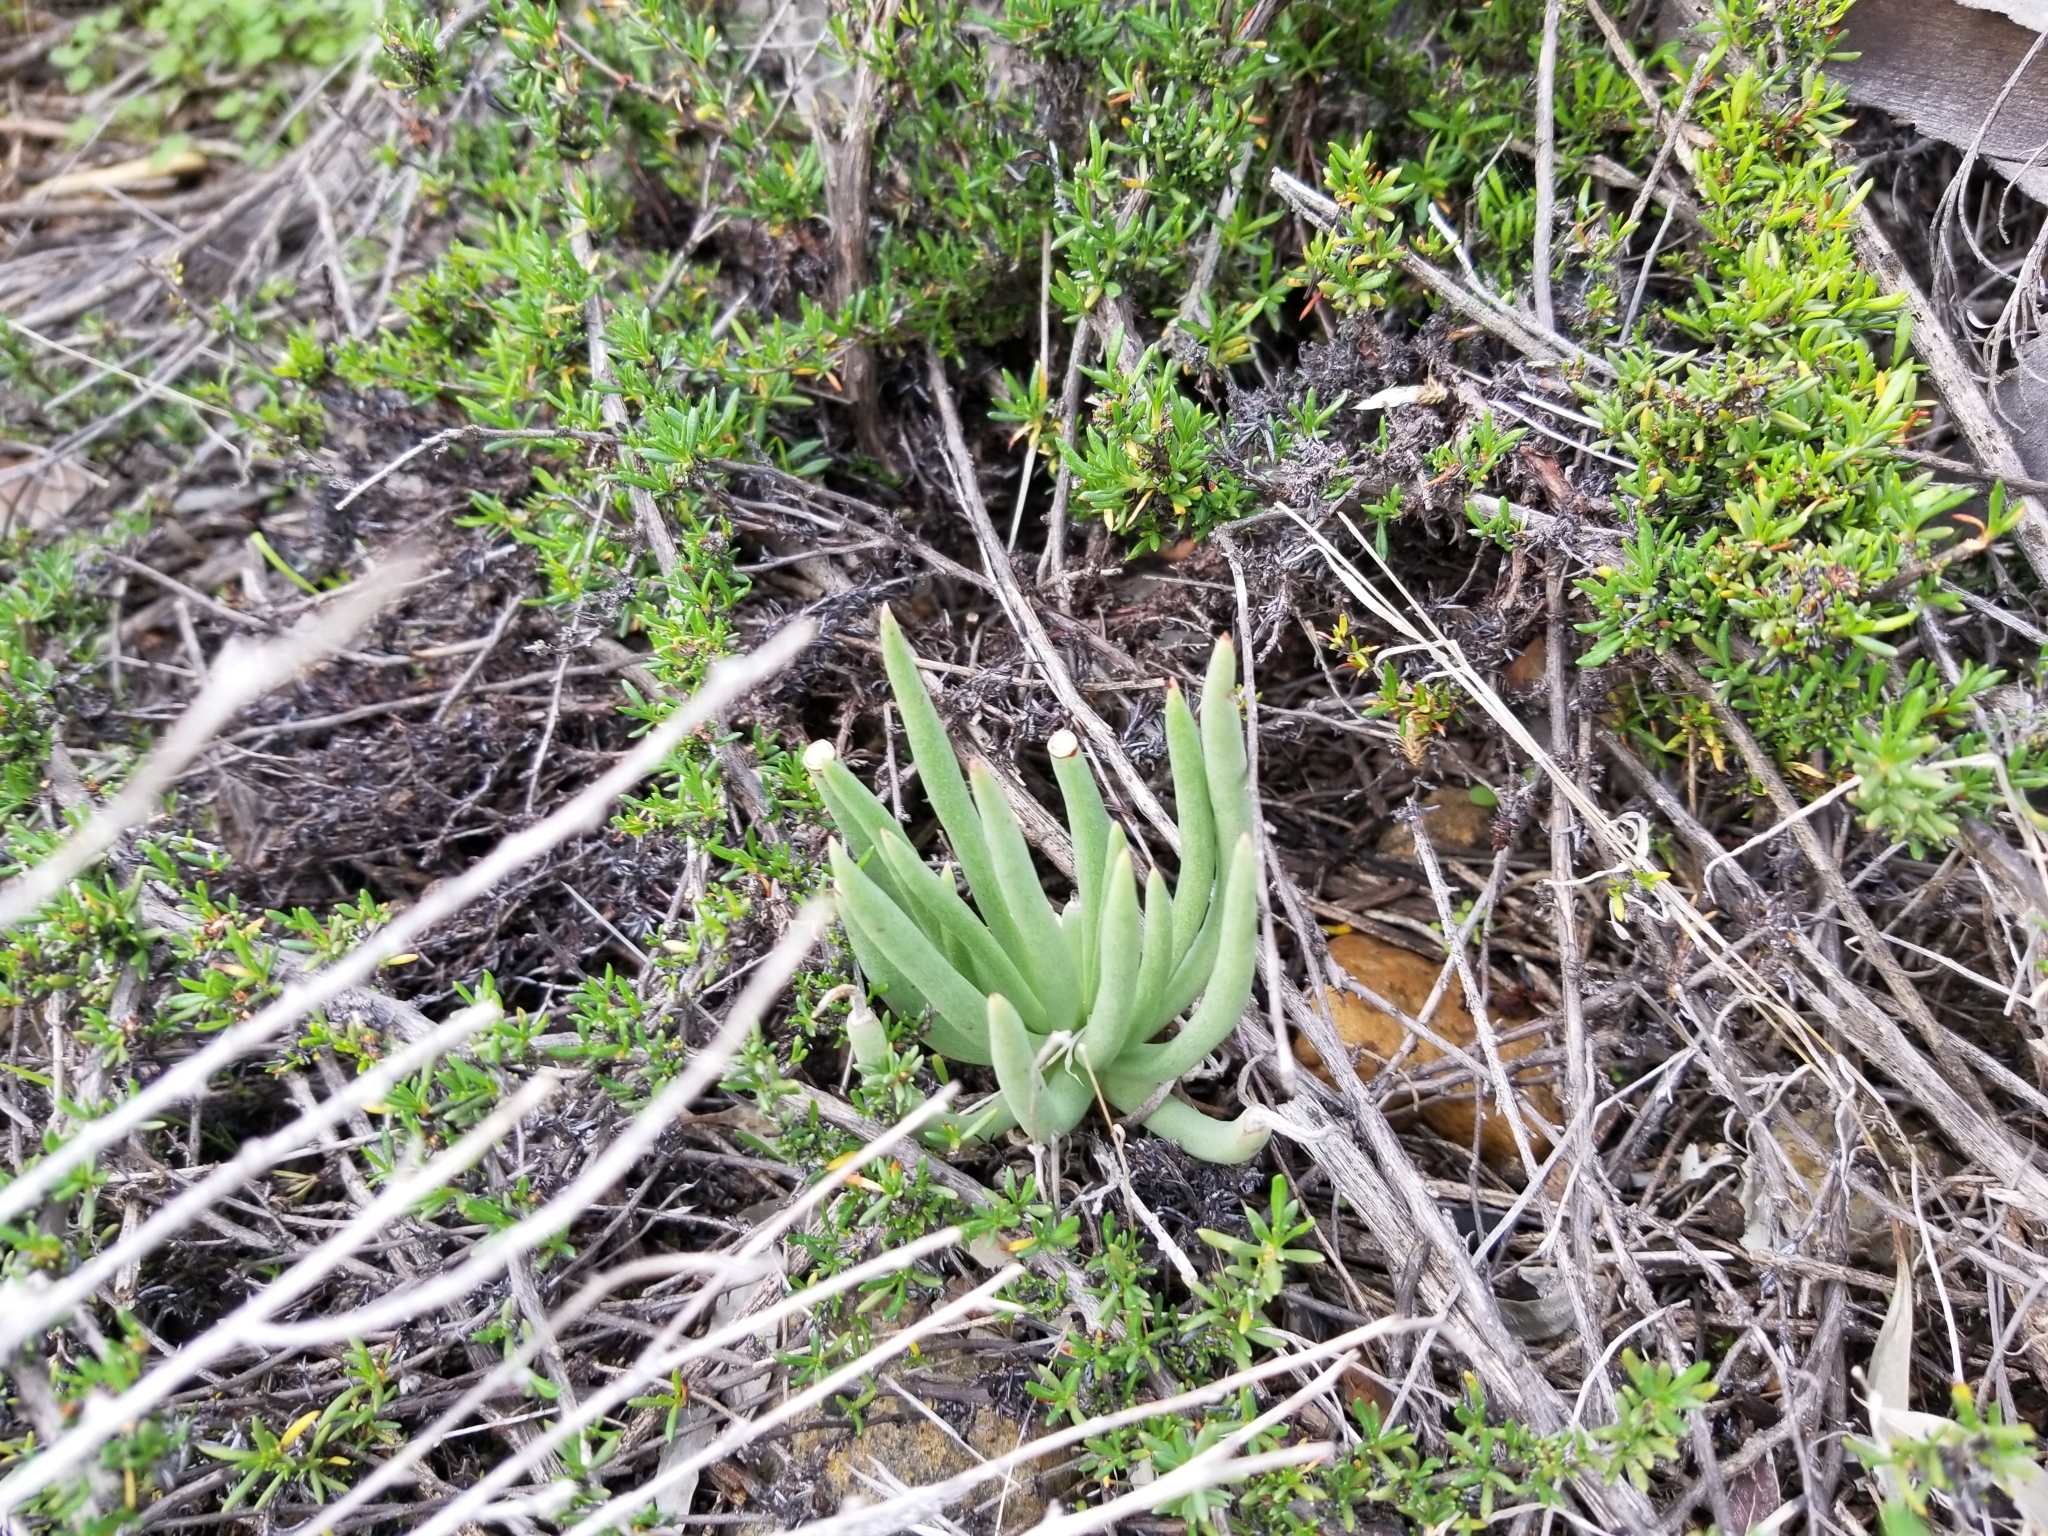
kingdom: Plantae
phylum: Tracheophyta
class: Magnoliopsida
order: Saxifragales
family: Crassulaceae
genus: Dudleya
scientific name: Dudleya edulis
